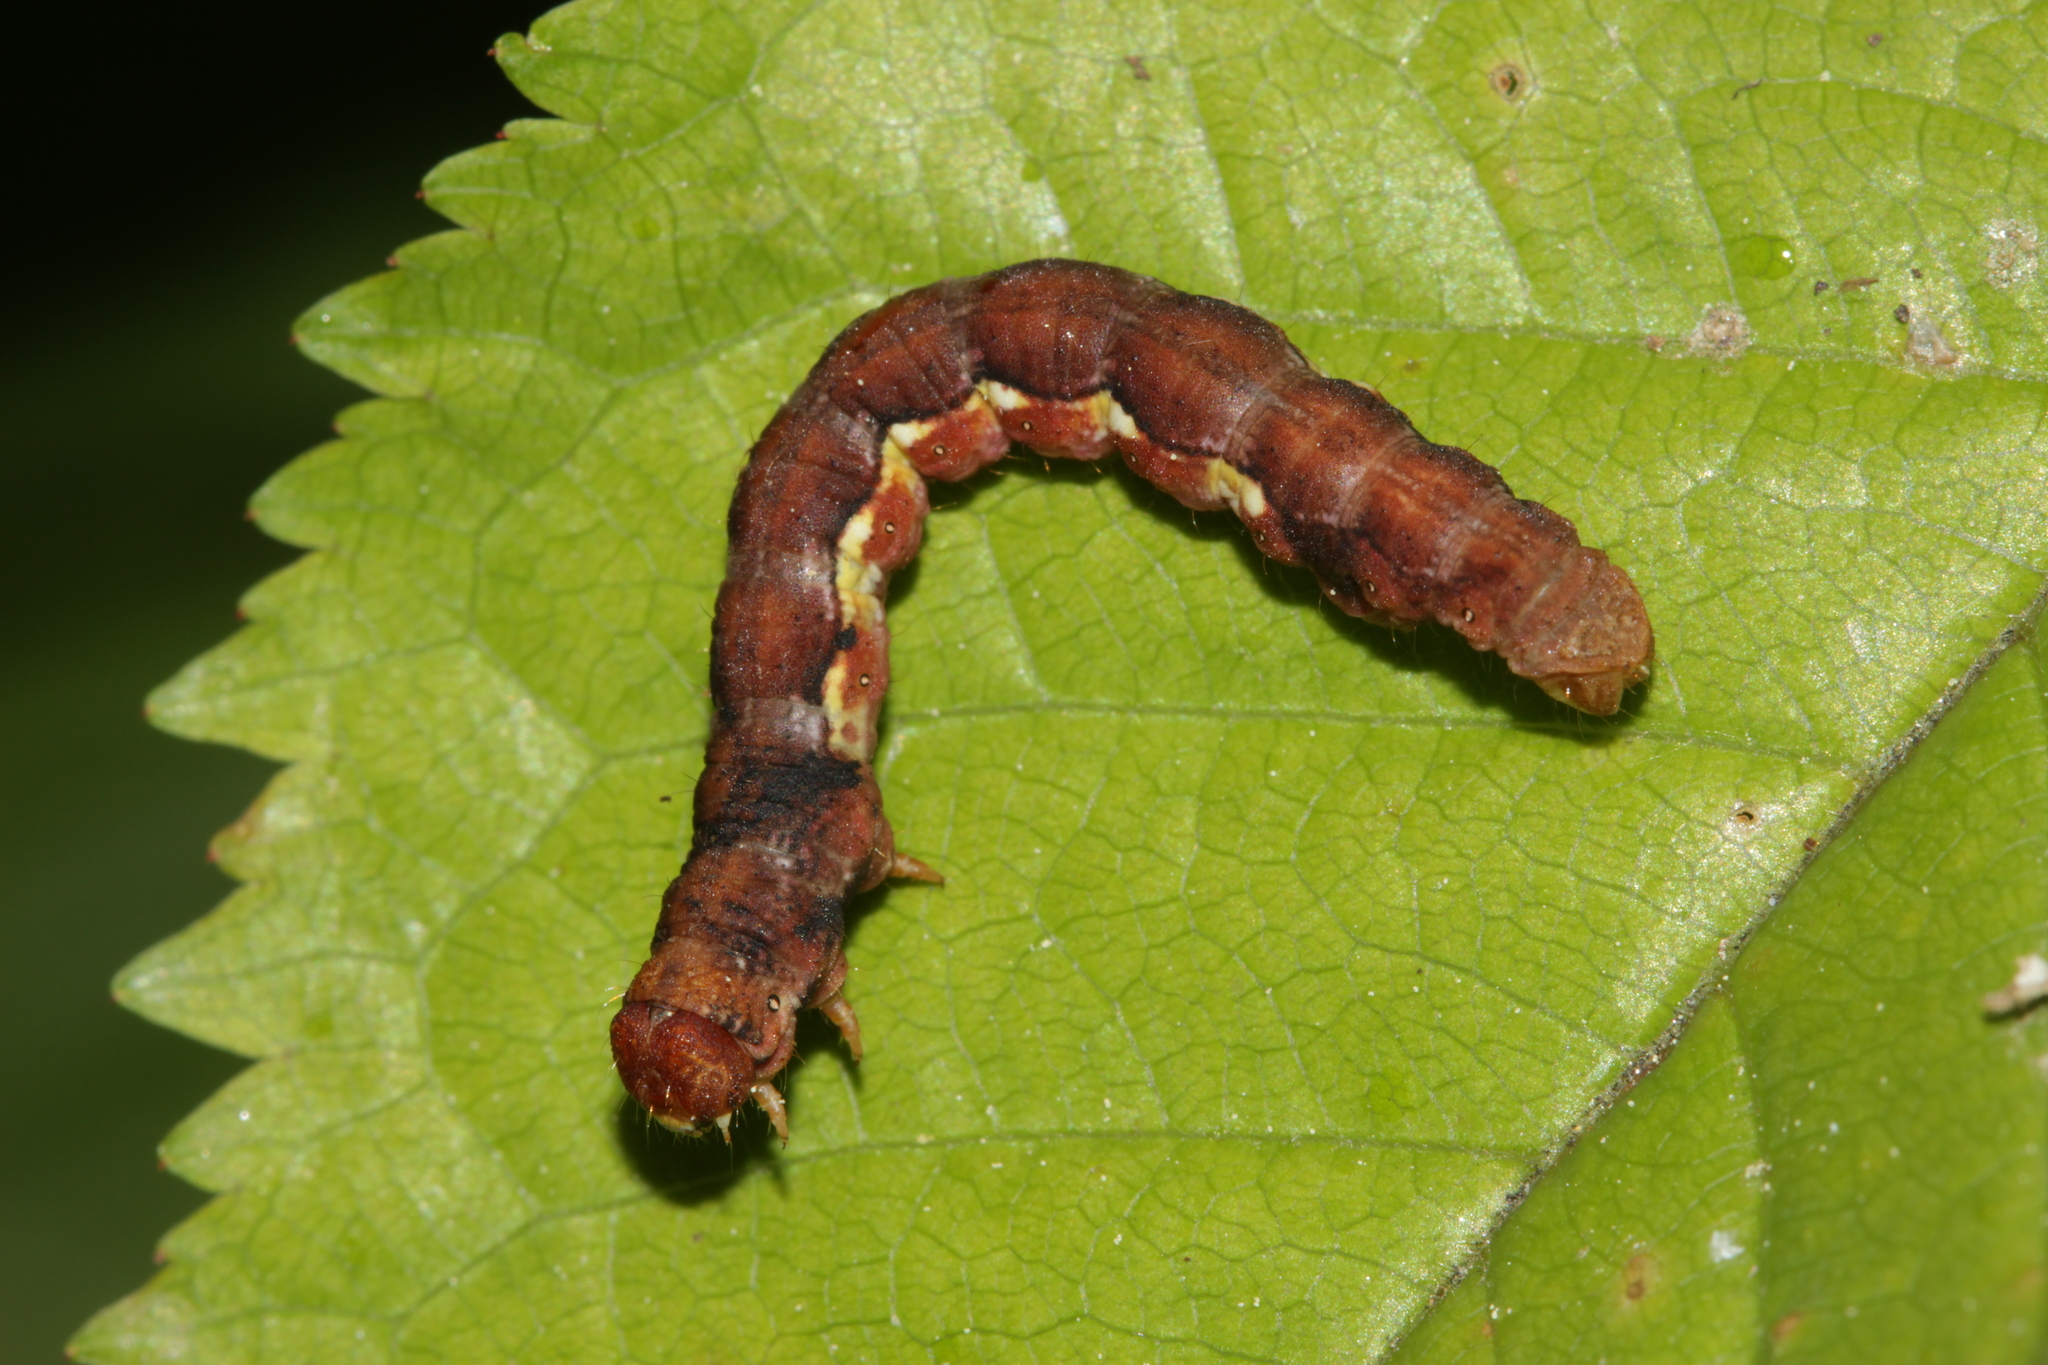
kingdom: Animalia
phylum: Arthropoda
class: Insecta
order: Lepidoptera
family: Geometridae
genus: Erannis
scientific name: Erannis defoliaria
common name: Mottled umber
